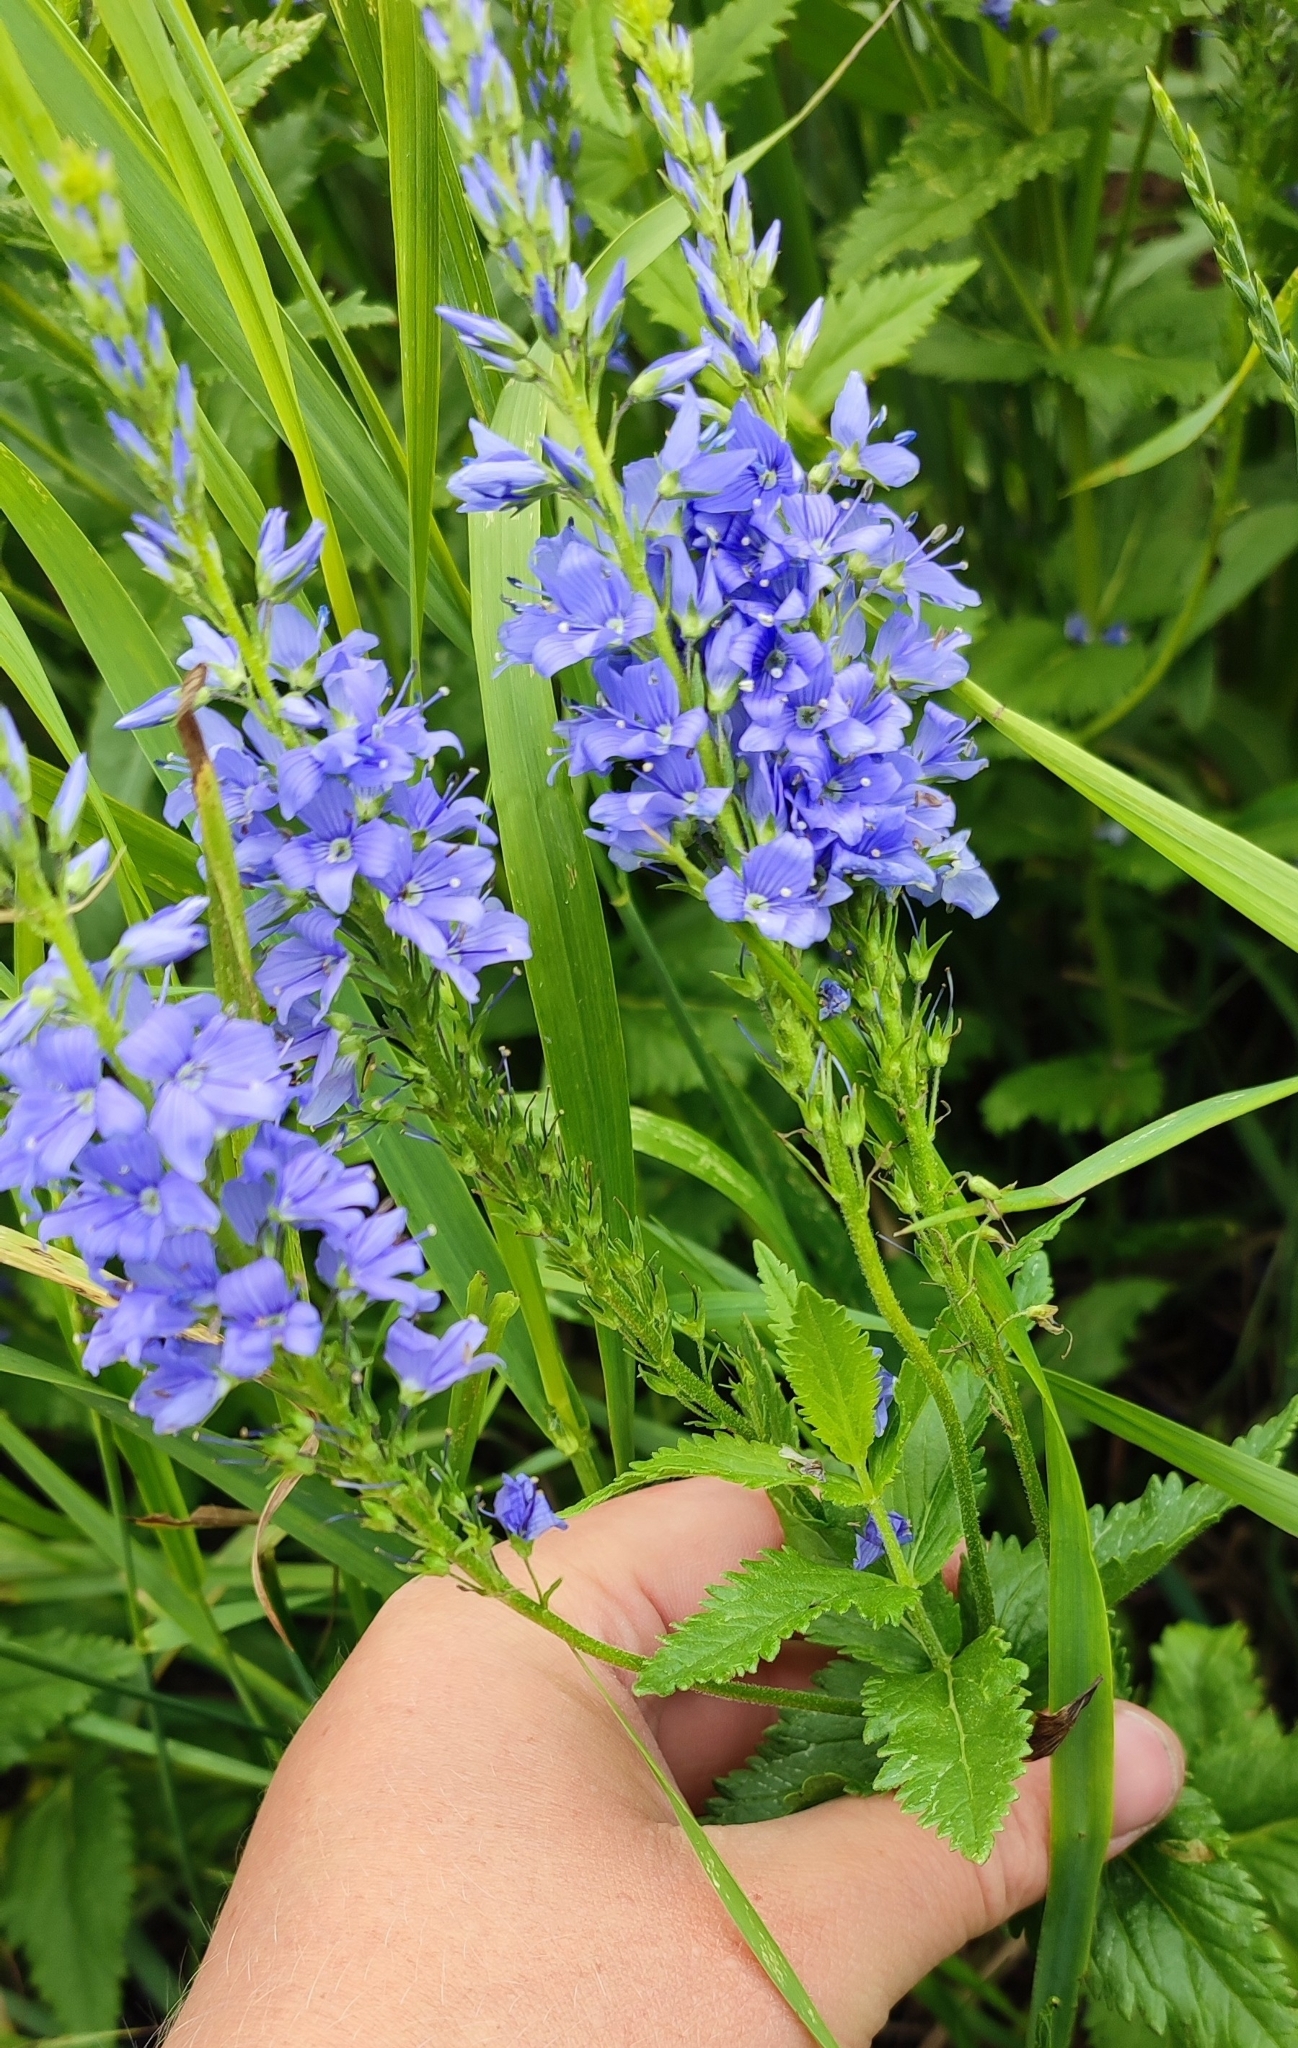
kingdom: Plantae
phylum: Tracheophyta
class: Magnoliopsida
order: Lamiales
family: Plantaginaceae
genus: Veronica
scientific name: Veronica teucrium
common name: Large speedwell
